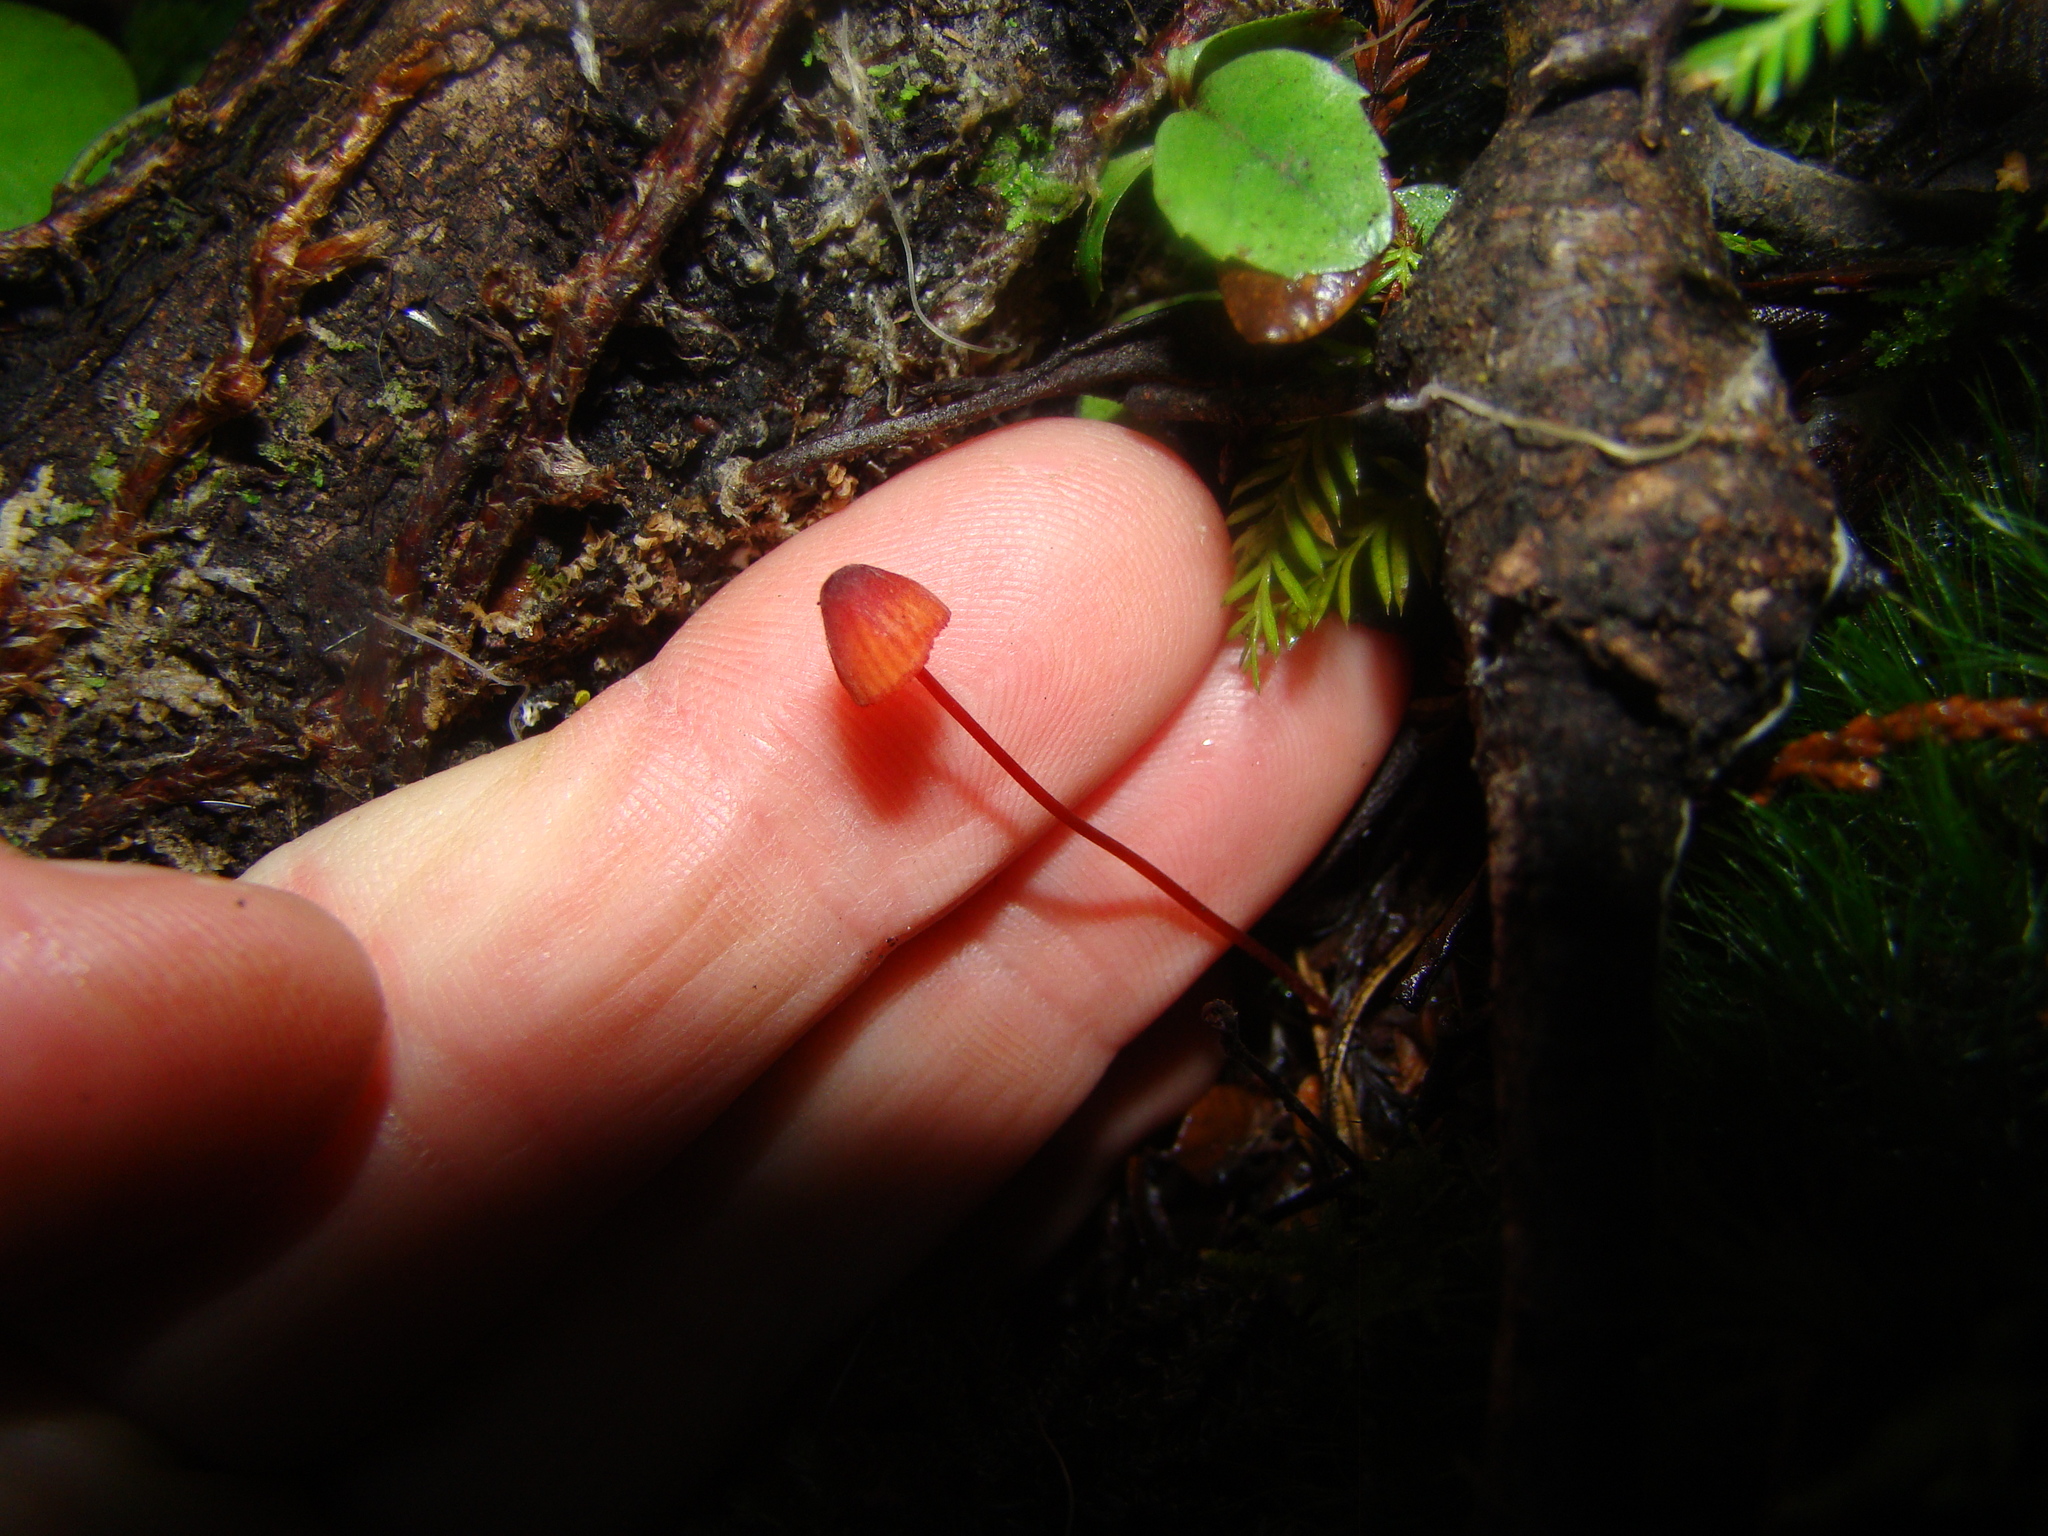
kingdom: Fungi
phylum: Basidiomycota
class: Agaricomycetes
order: Agaricales
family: Mycenaceae
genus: Mycena
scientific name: Mycena ura
